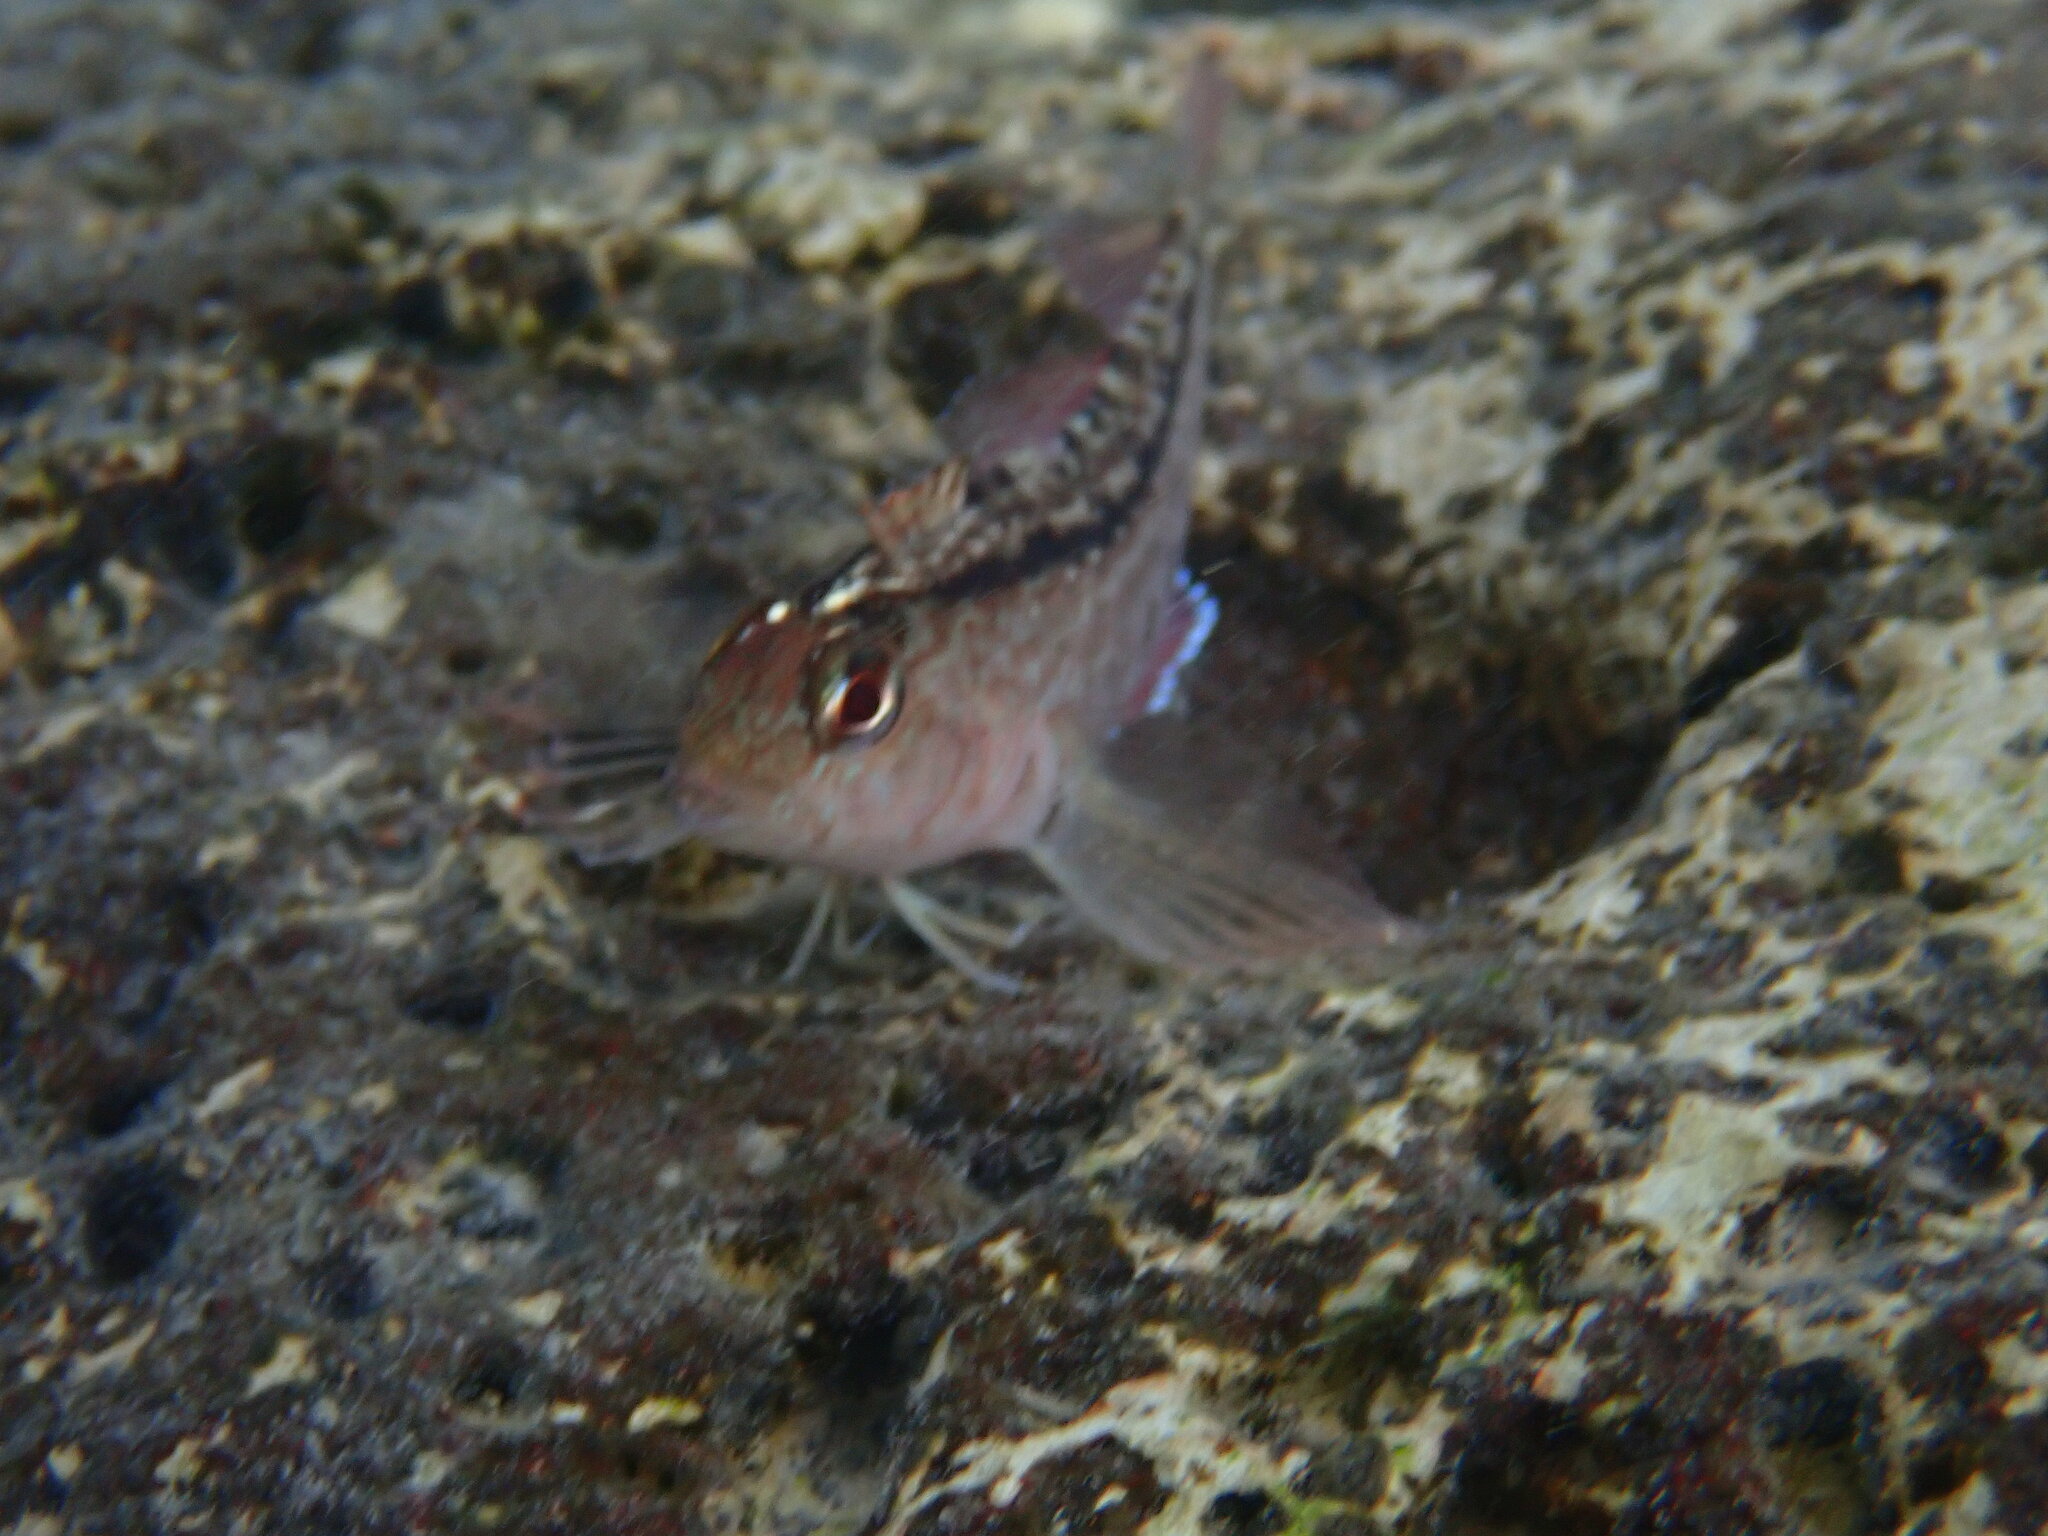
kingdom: Animalia
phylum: Chordata
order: Perciformes
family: Tripterygiidae
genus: Forsterygion
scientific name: Forsterygion lapillum
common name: Common triplefin
